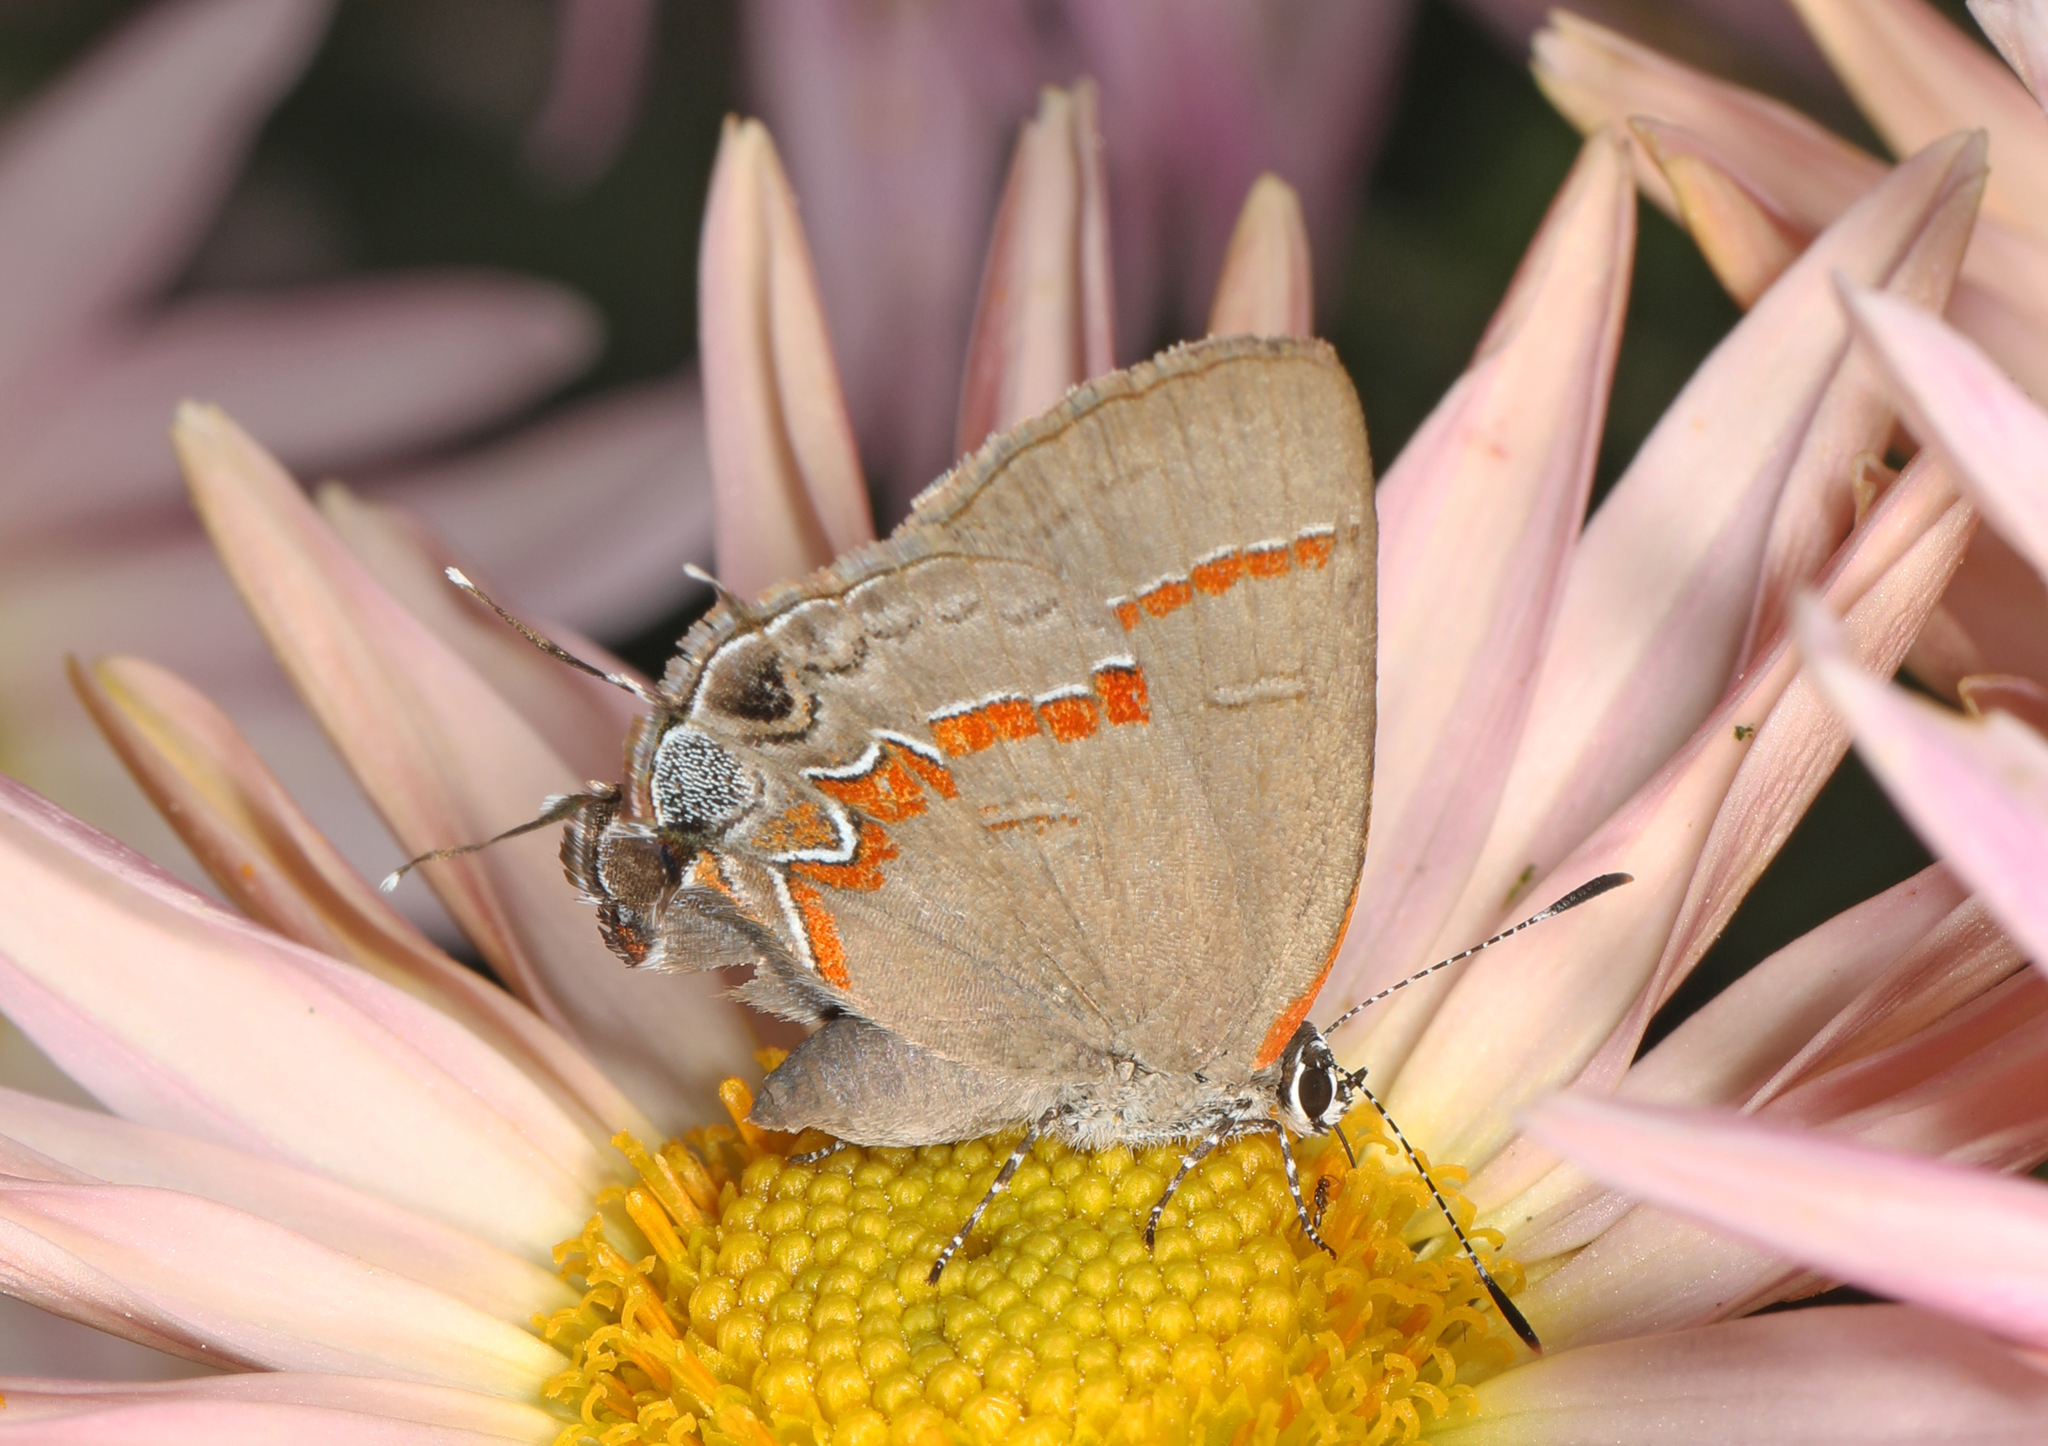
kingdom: Animalia
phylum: Arthropoda
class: Insecta
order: Lepidoptera
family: Lycaenidae
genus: Calycopis
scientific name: Calycopis cecrops
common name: Red-banded hairstreak
